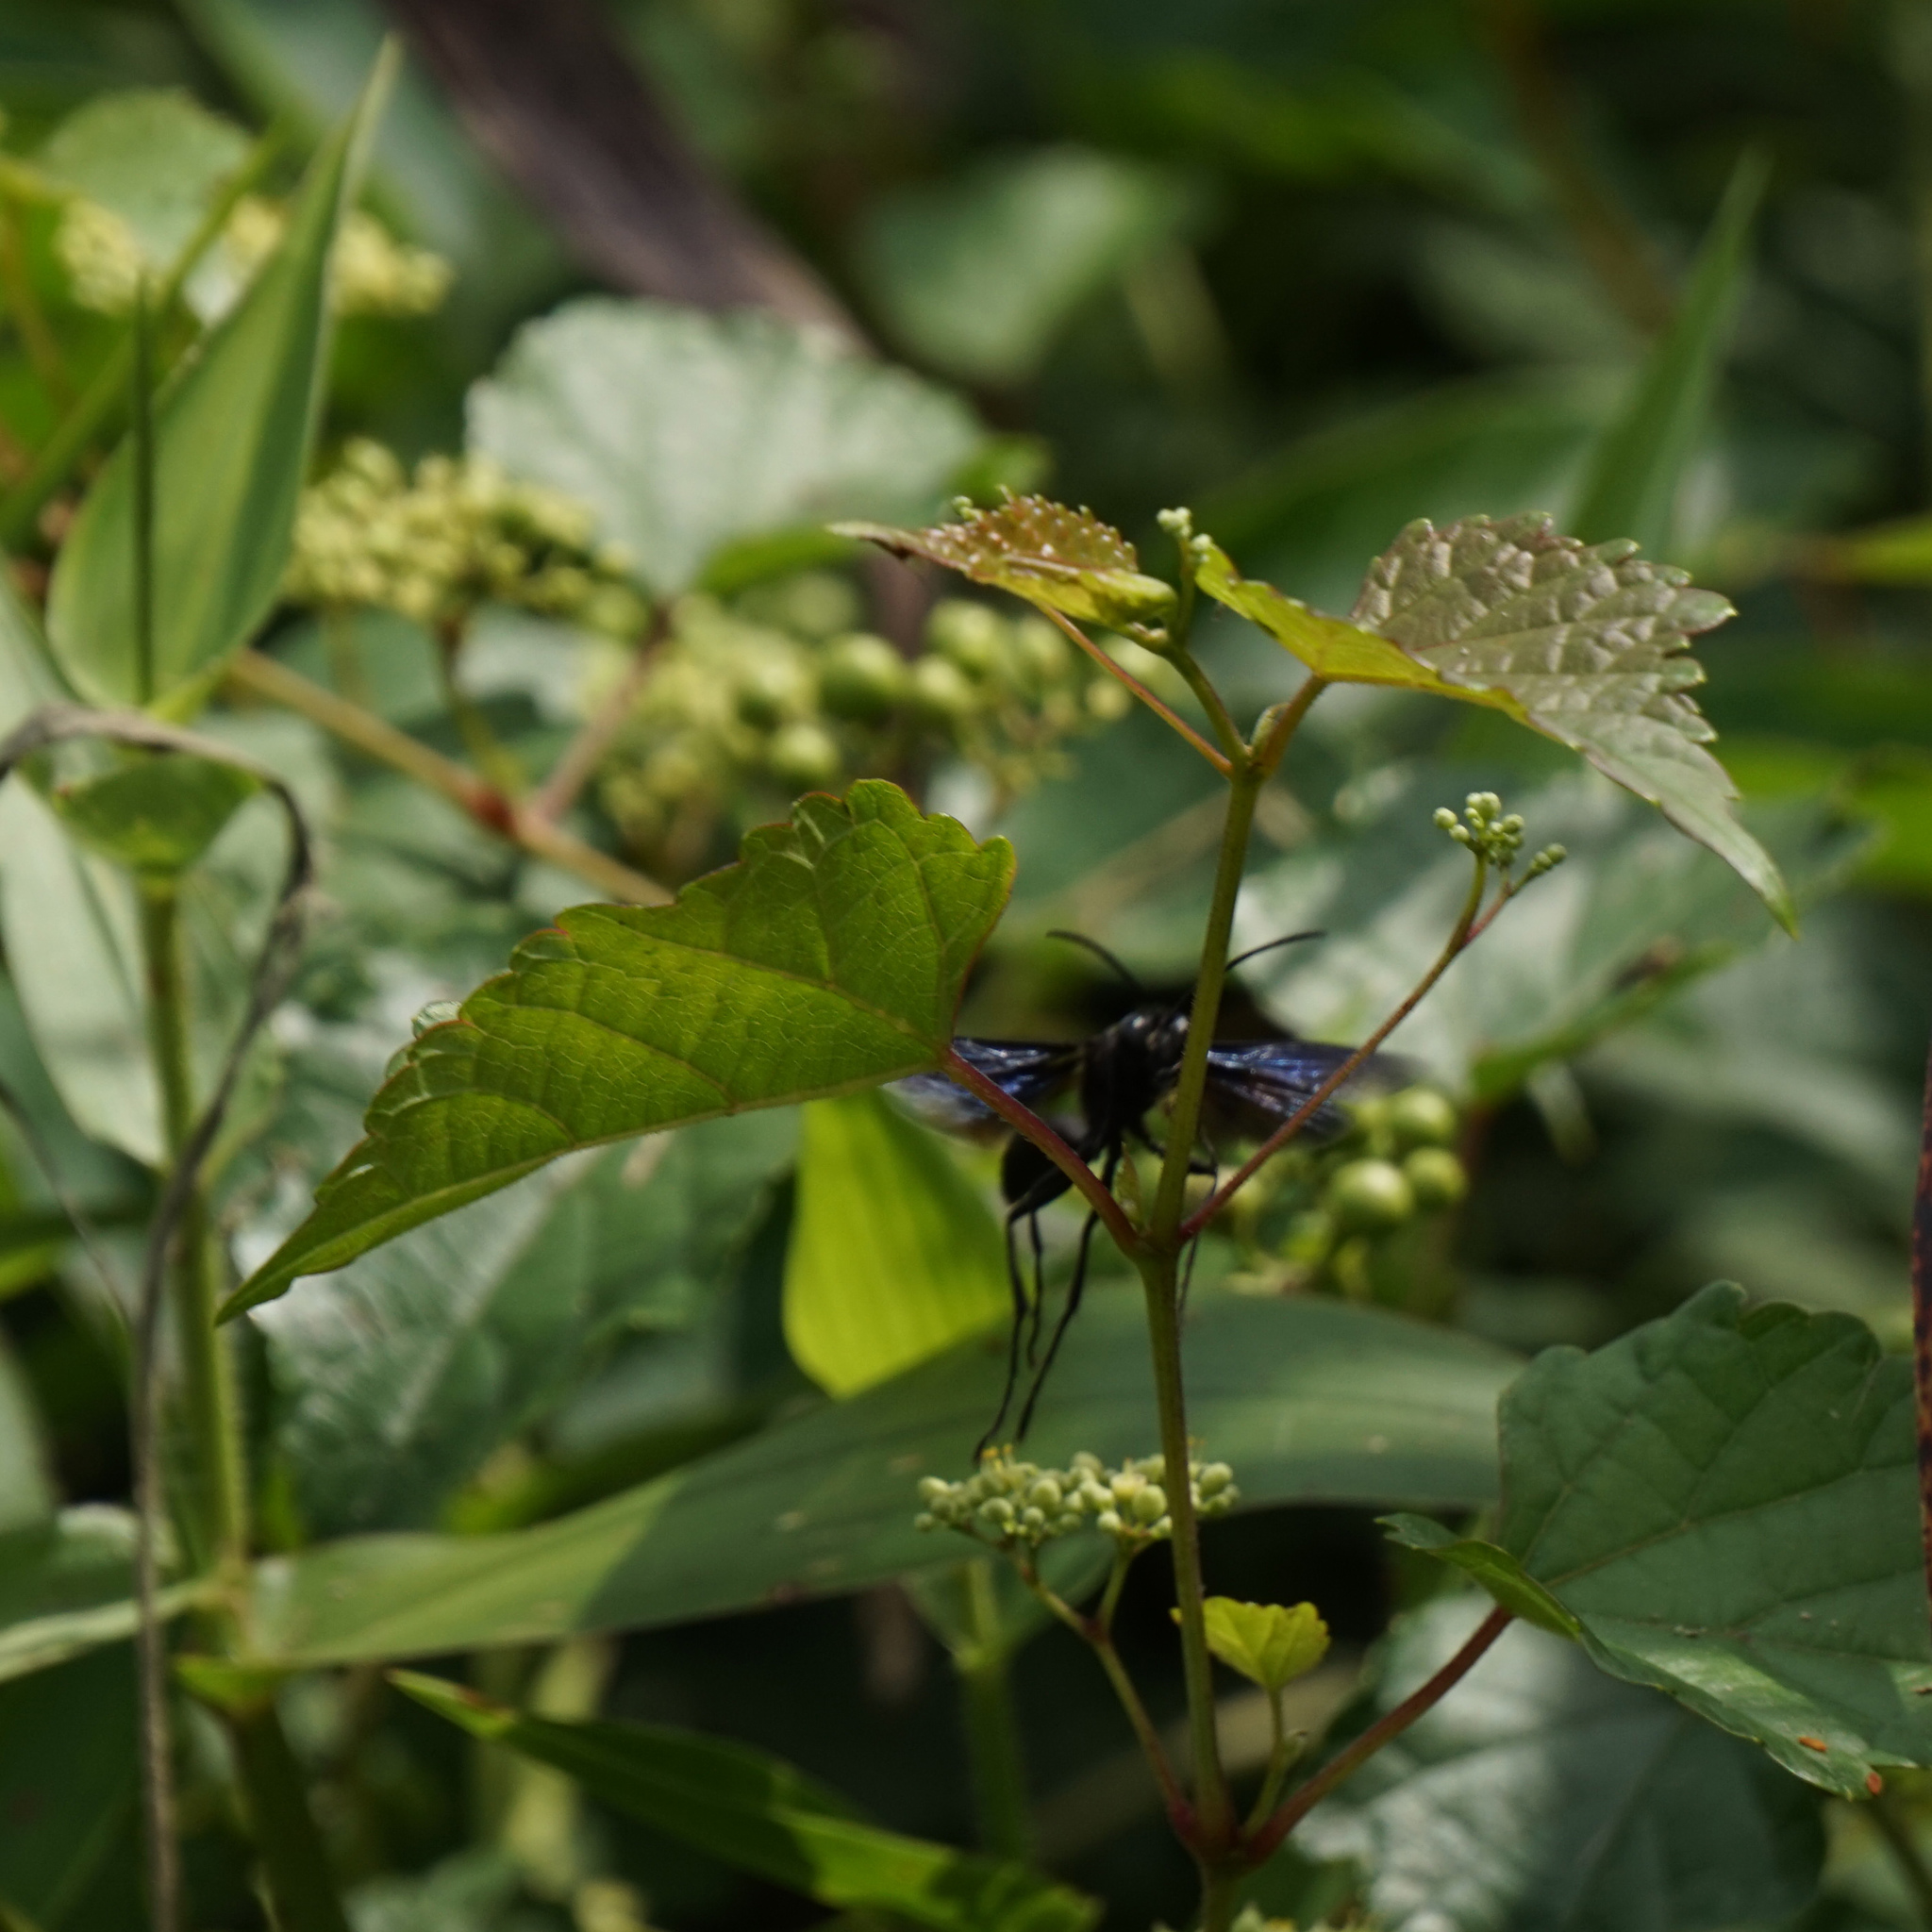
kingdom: Animalia
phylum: Arthropoda
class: Insecta
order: Hymenoptera
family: Sphecidae
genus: Sphex
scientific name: Sphex pensylvanicus
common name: Great black digger wasp
